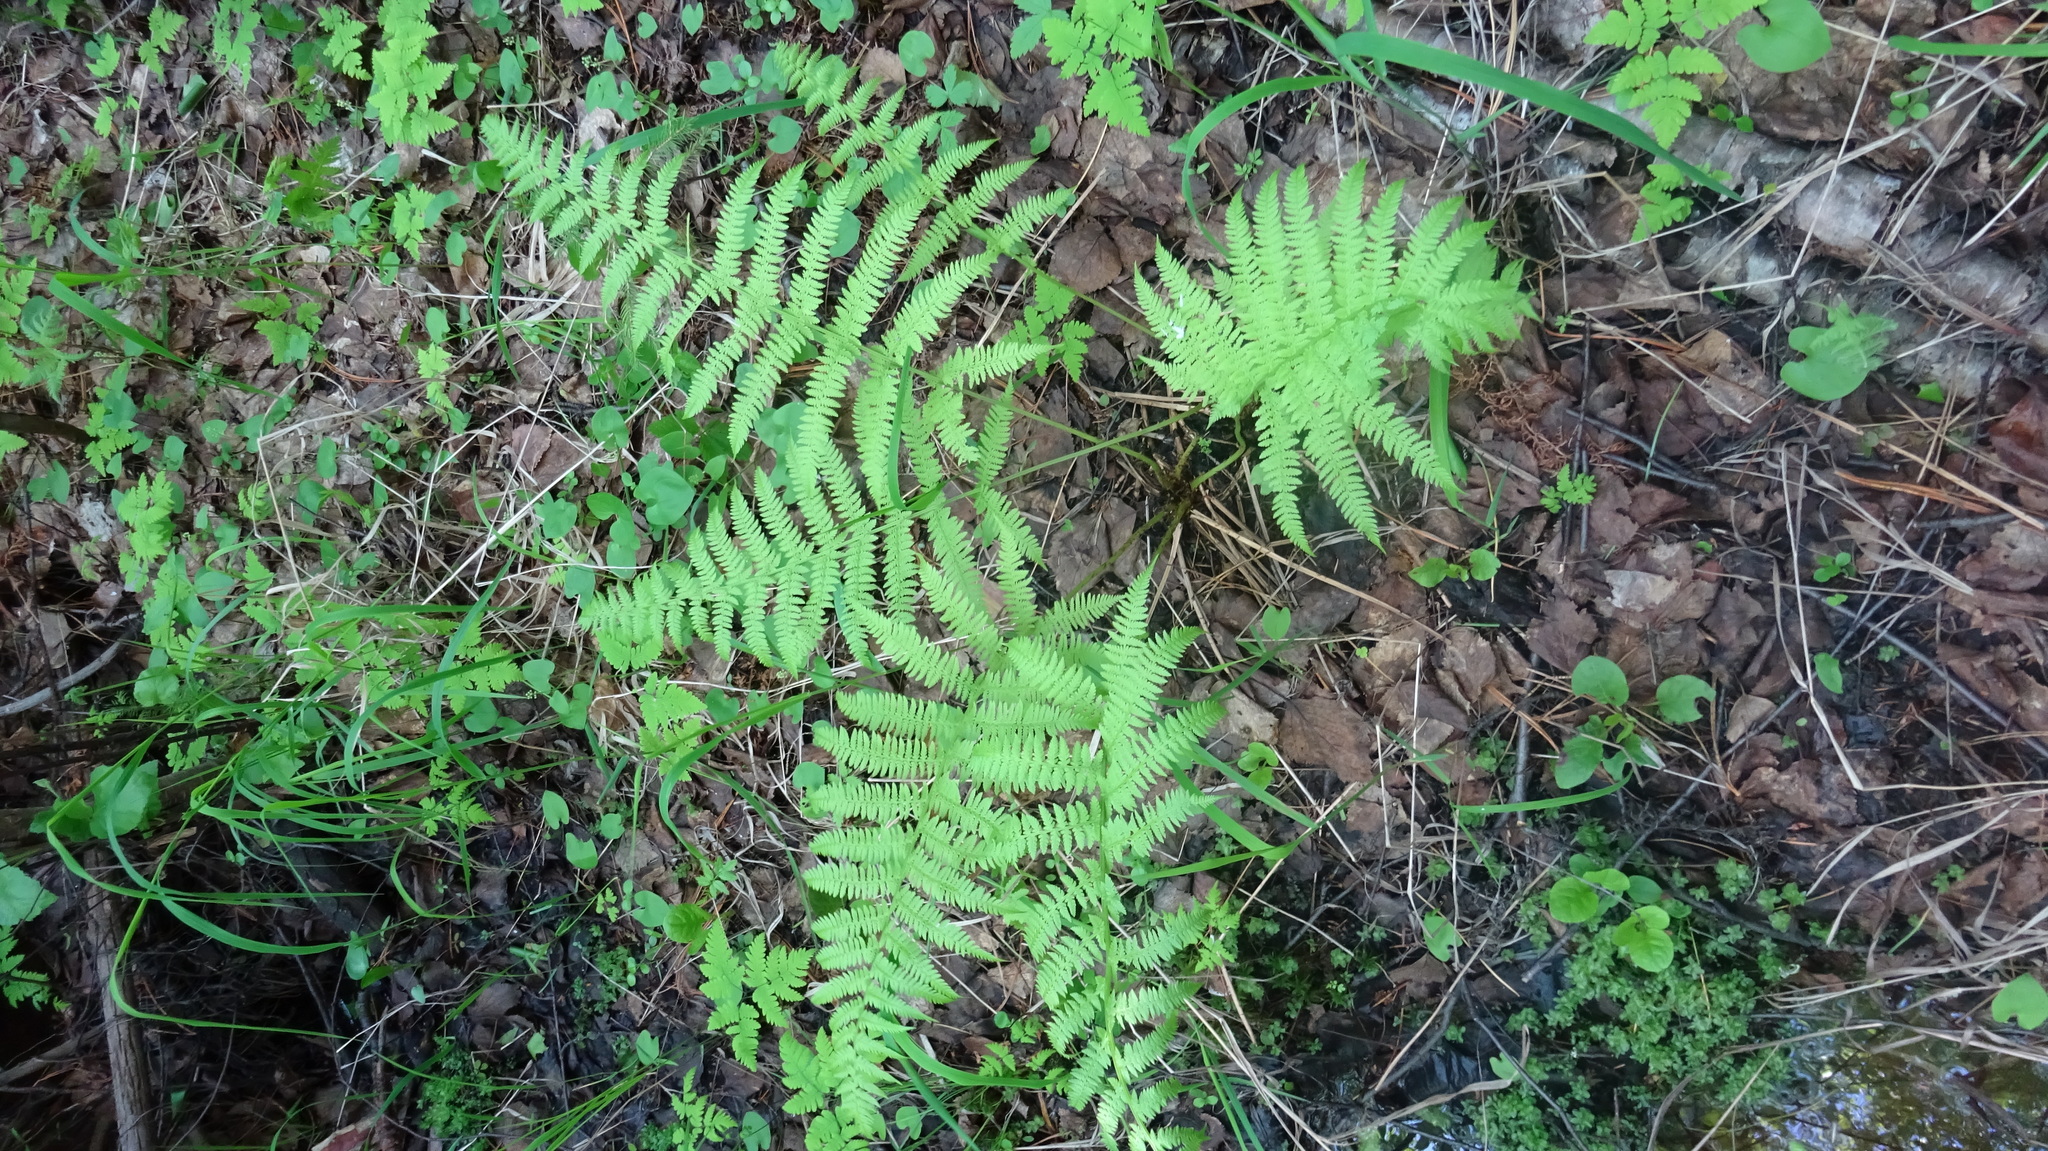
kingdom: Plantae
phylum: Tracheophyta
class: Polypodiopsida
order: Polypodiales
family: Athyriaceae
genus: Athyrium
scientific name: Athyrium filix-femina
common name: Lady fern
